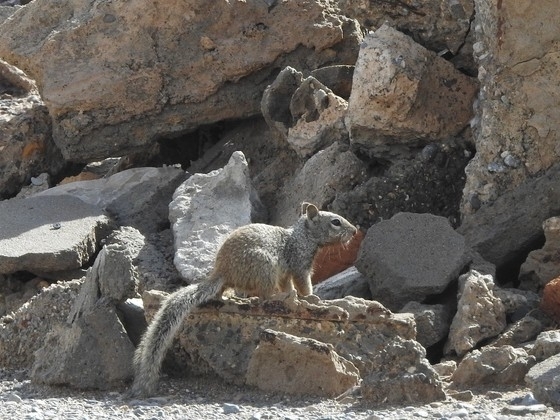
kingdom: Animalia
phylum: Chordata
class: Mammalia
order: Rodentia
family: Sciuridae
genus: Otospermophilus
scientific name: Otospermophilus variegatus
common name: Rock squirrel
